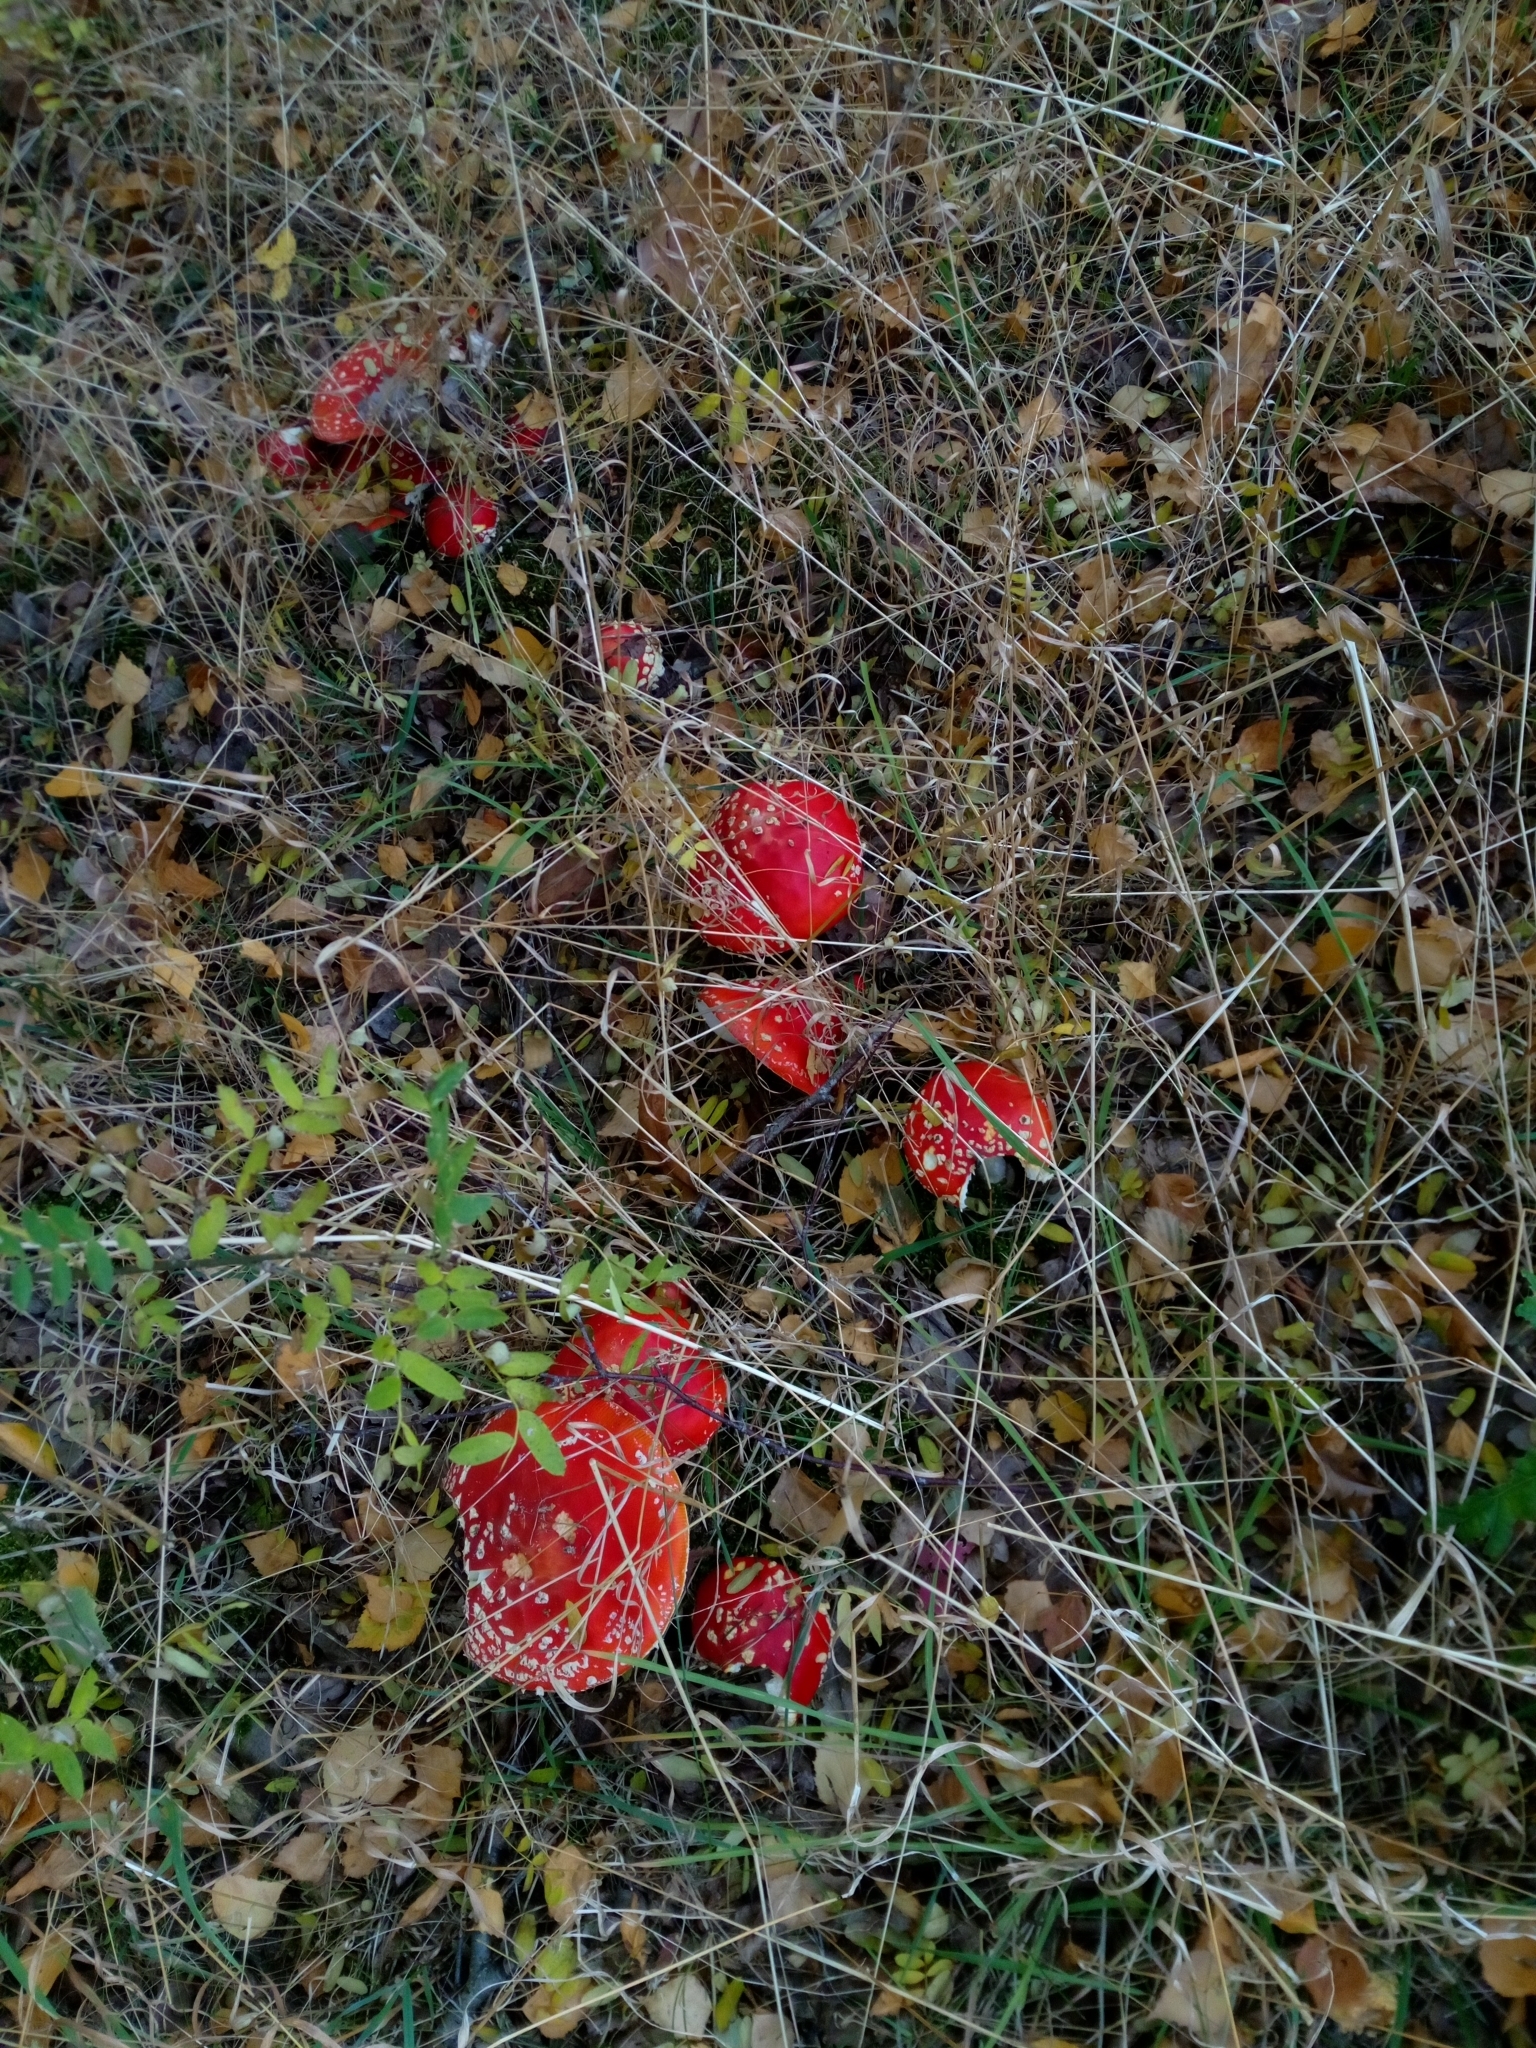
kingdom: Fungi
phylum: Basidiomycota
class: Agaricomycetes
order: Agaricales
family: Amanitaceae
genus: Amanita
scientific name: Amanita muscaria
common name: Fly agaric
